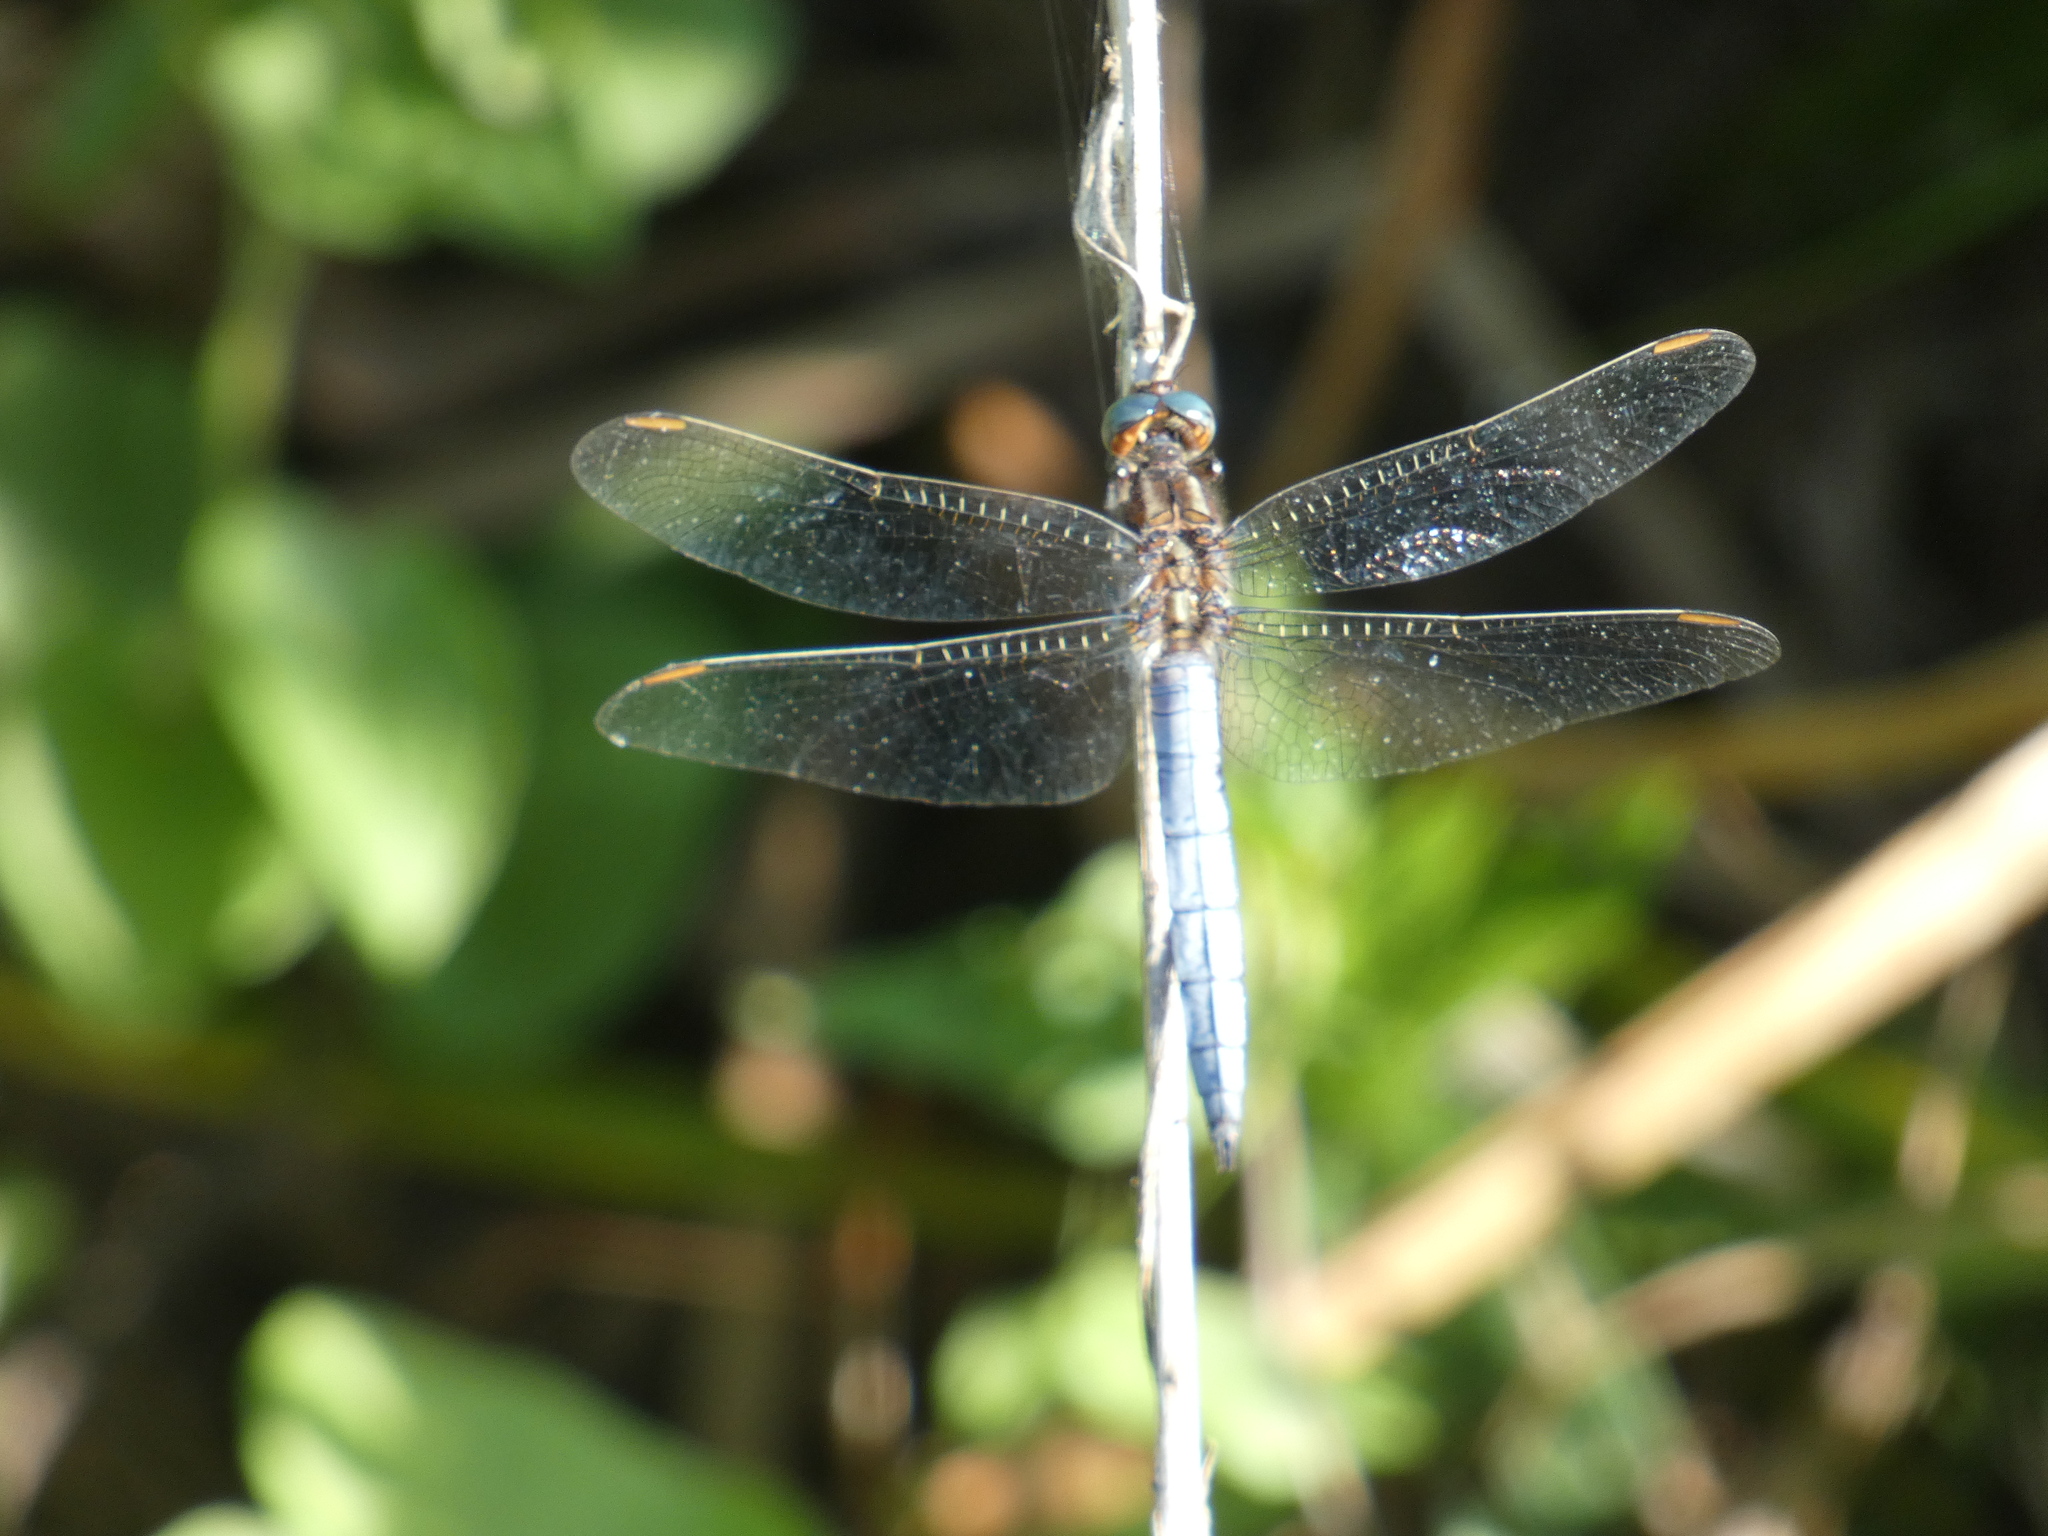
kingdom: Animalia
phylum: Arthropoda
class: Insecta
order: Odonata
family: Libellulidae
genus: Orthetrum
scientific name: Orthetrum coerulescens
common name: Keeled skimmer
